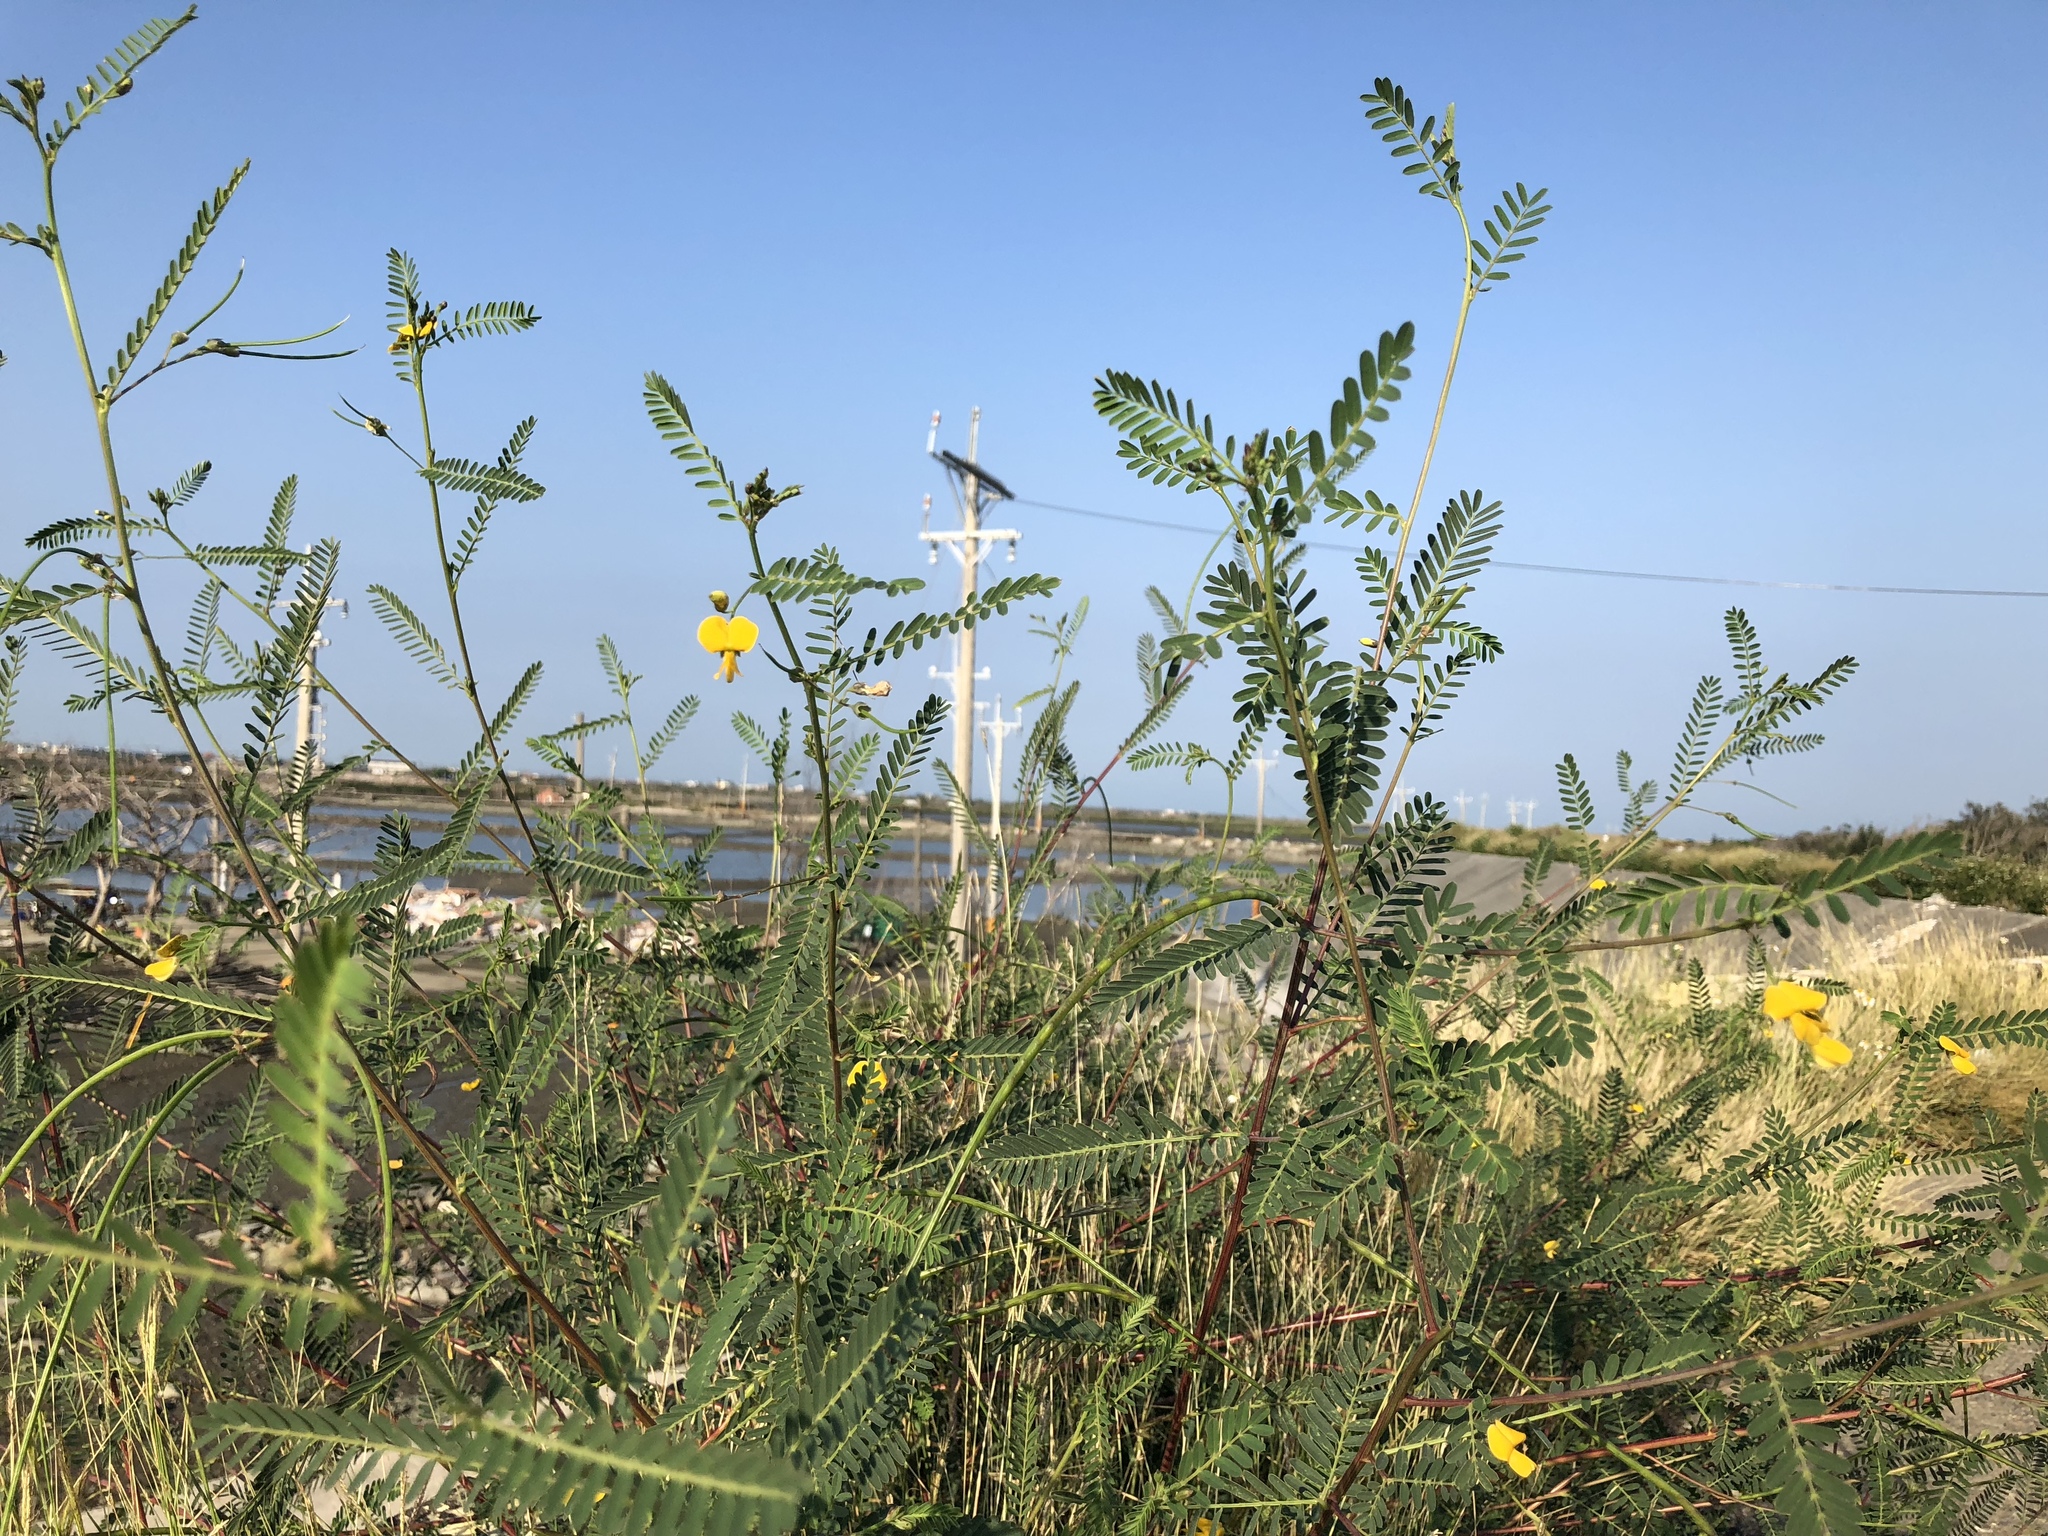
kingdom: Plantae
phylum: Tracheophyta
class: Magnoliopsida
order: Fabales
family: Fabaceae
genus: Sesbania
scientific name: Sesbania cannabina
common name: Canicha
